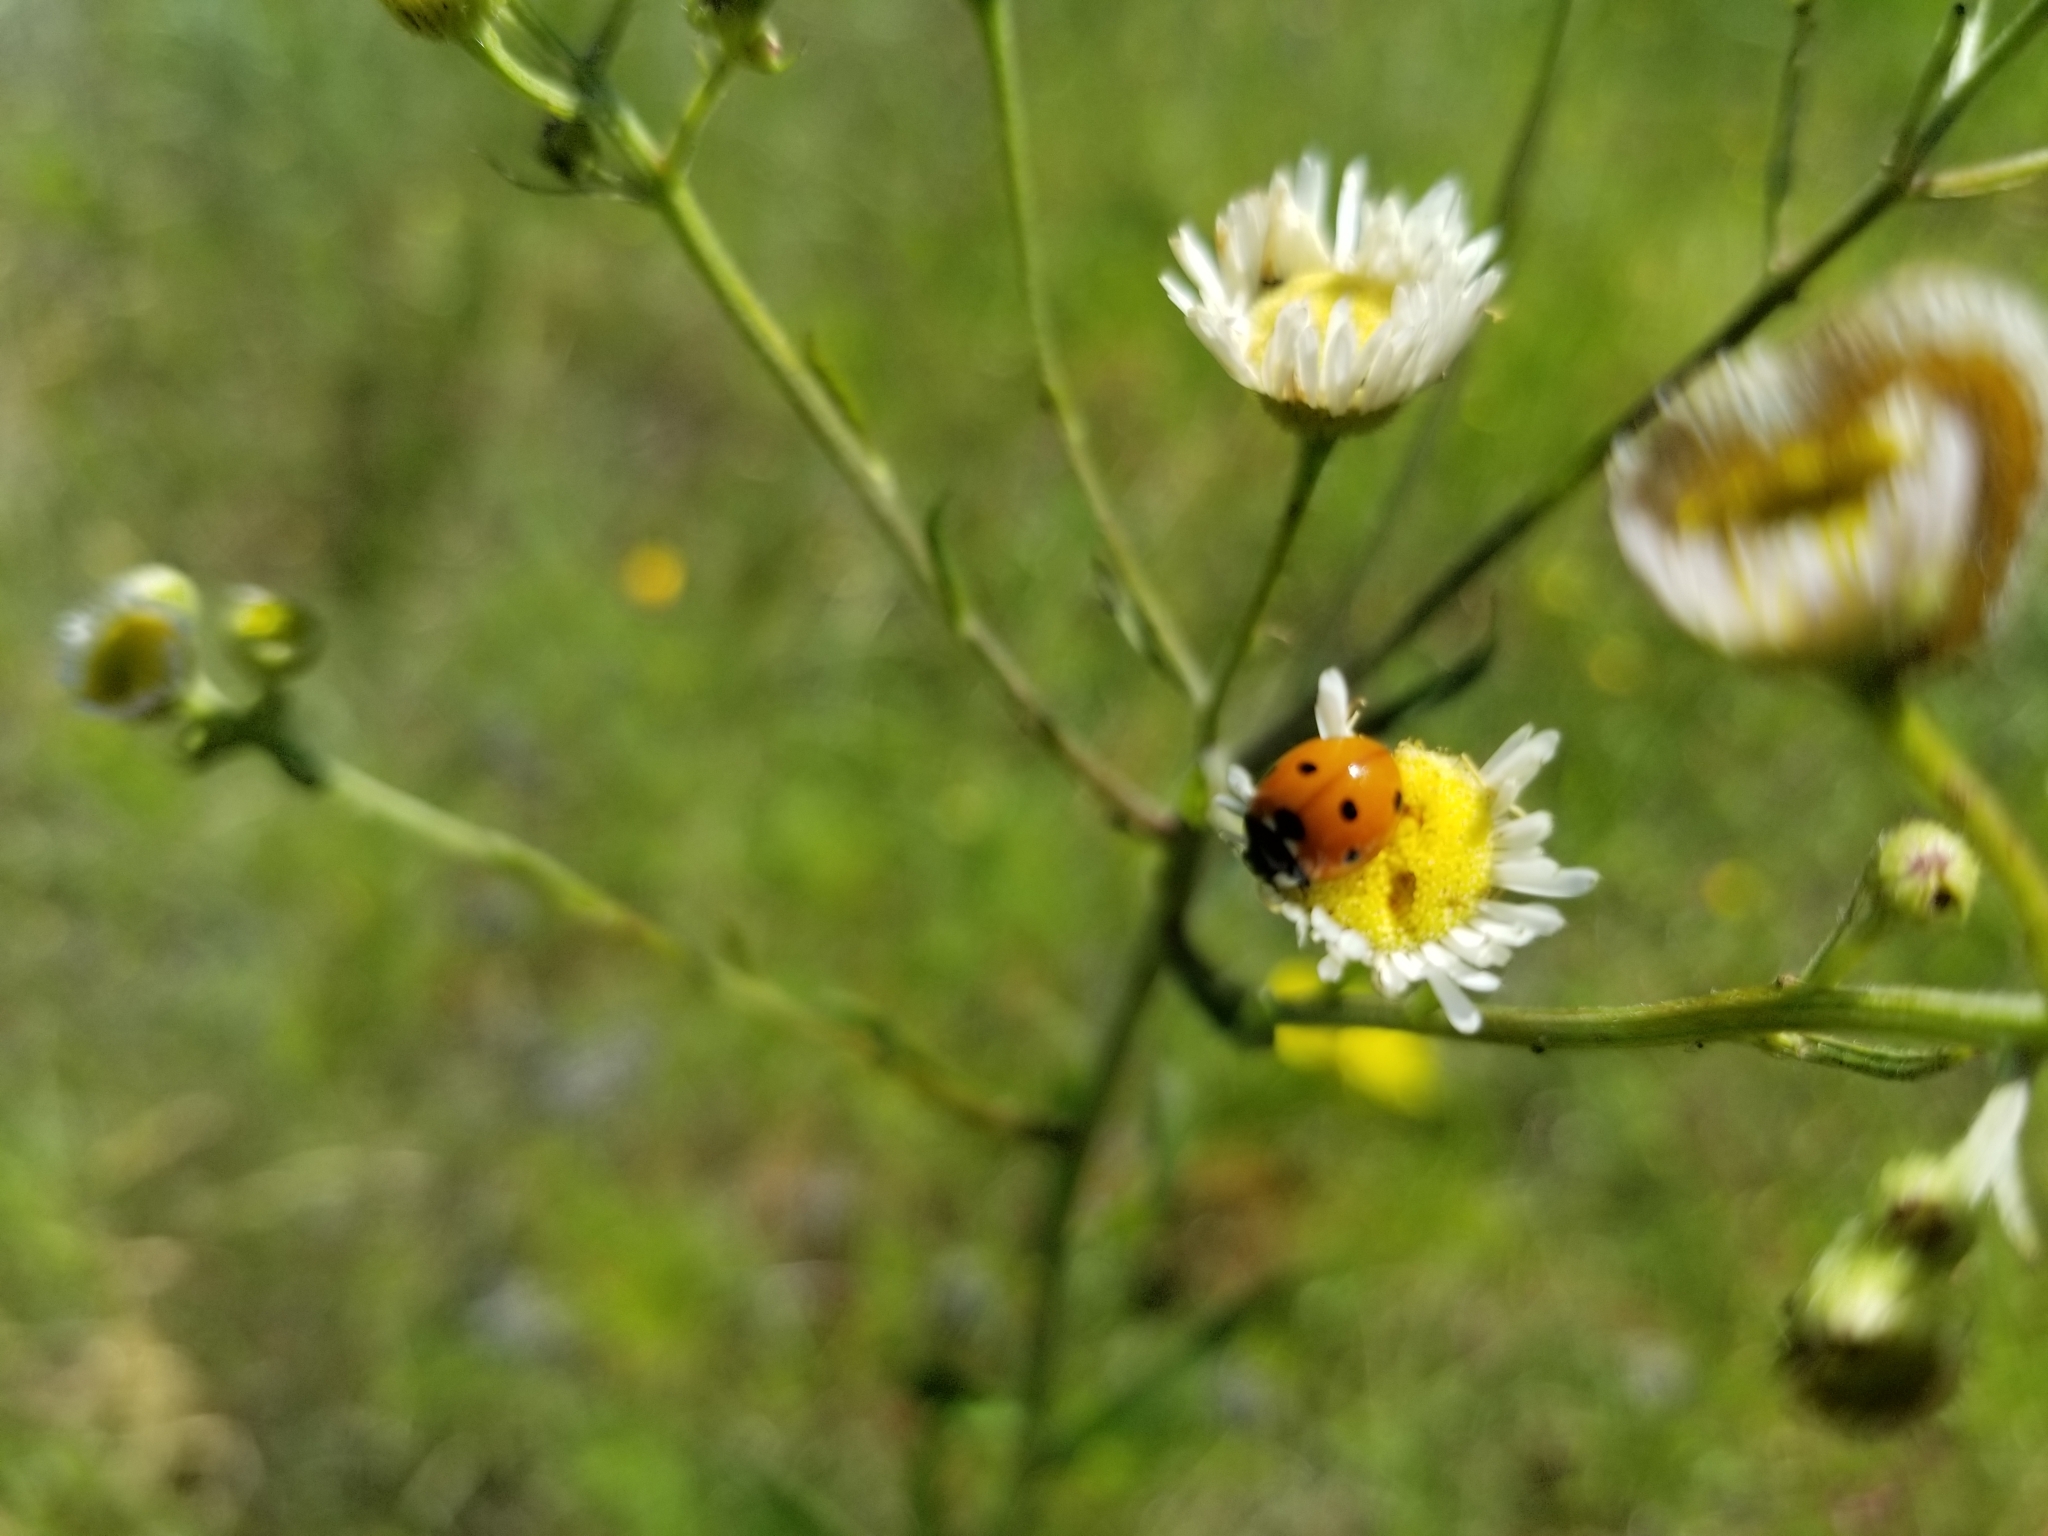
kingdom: Animalia
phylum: Arthropoda
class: Insecta
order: Coleoptera
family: Coccinellidae
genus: Coccinella
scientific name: Coccinella septempunctata
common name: Sevenspotted lady beetle
